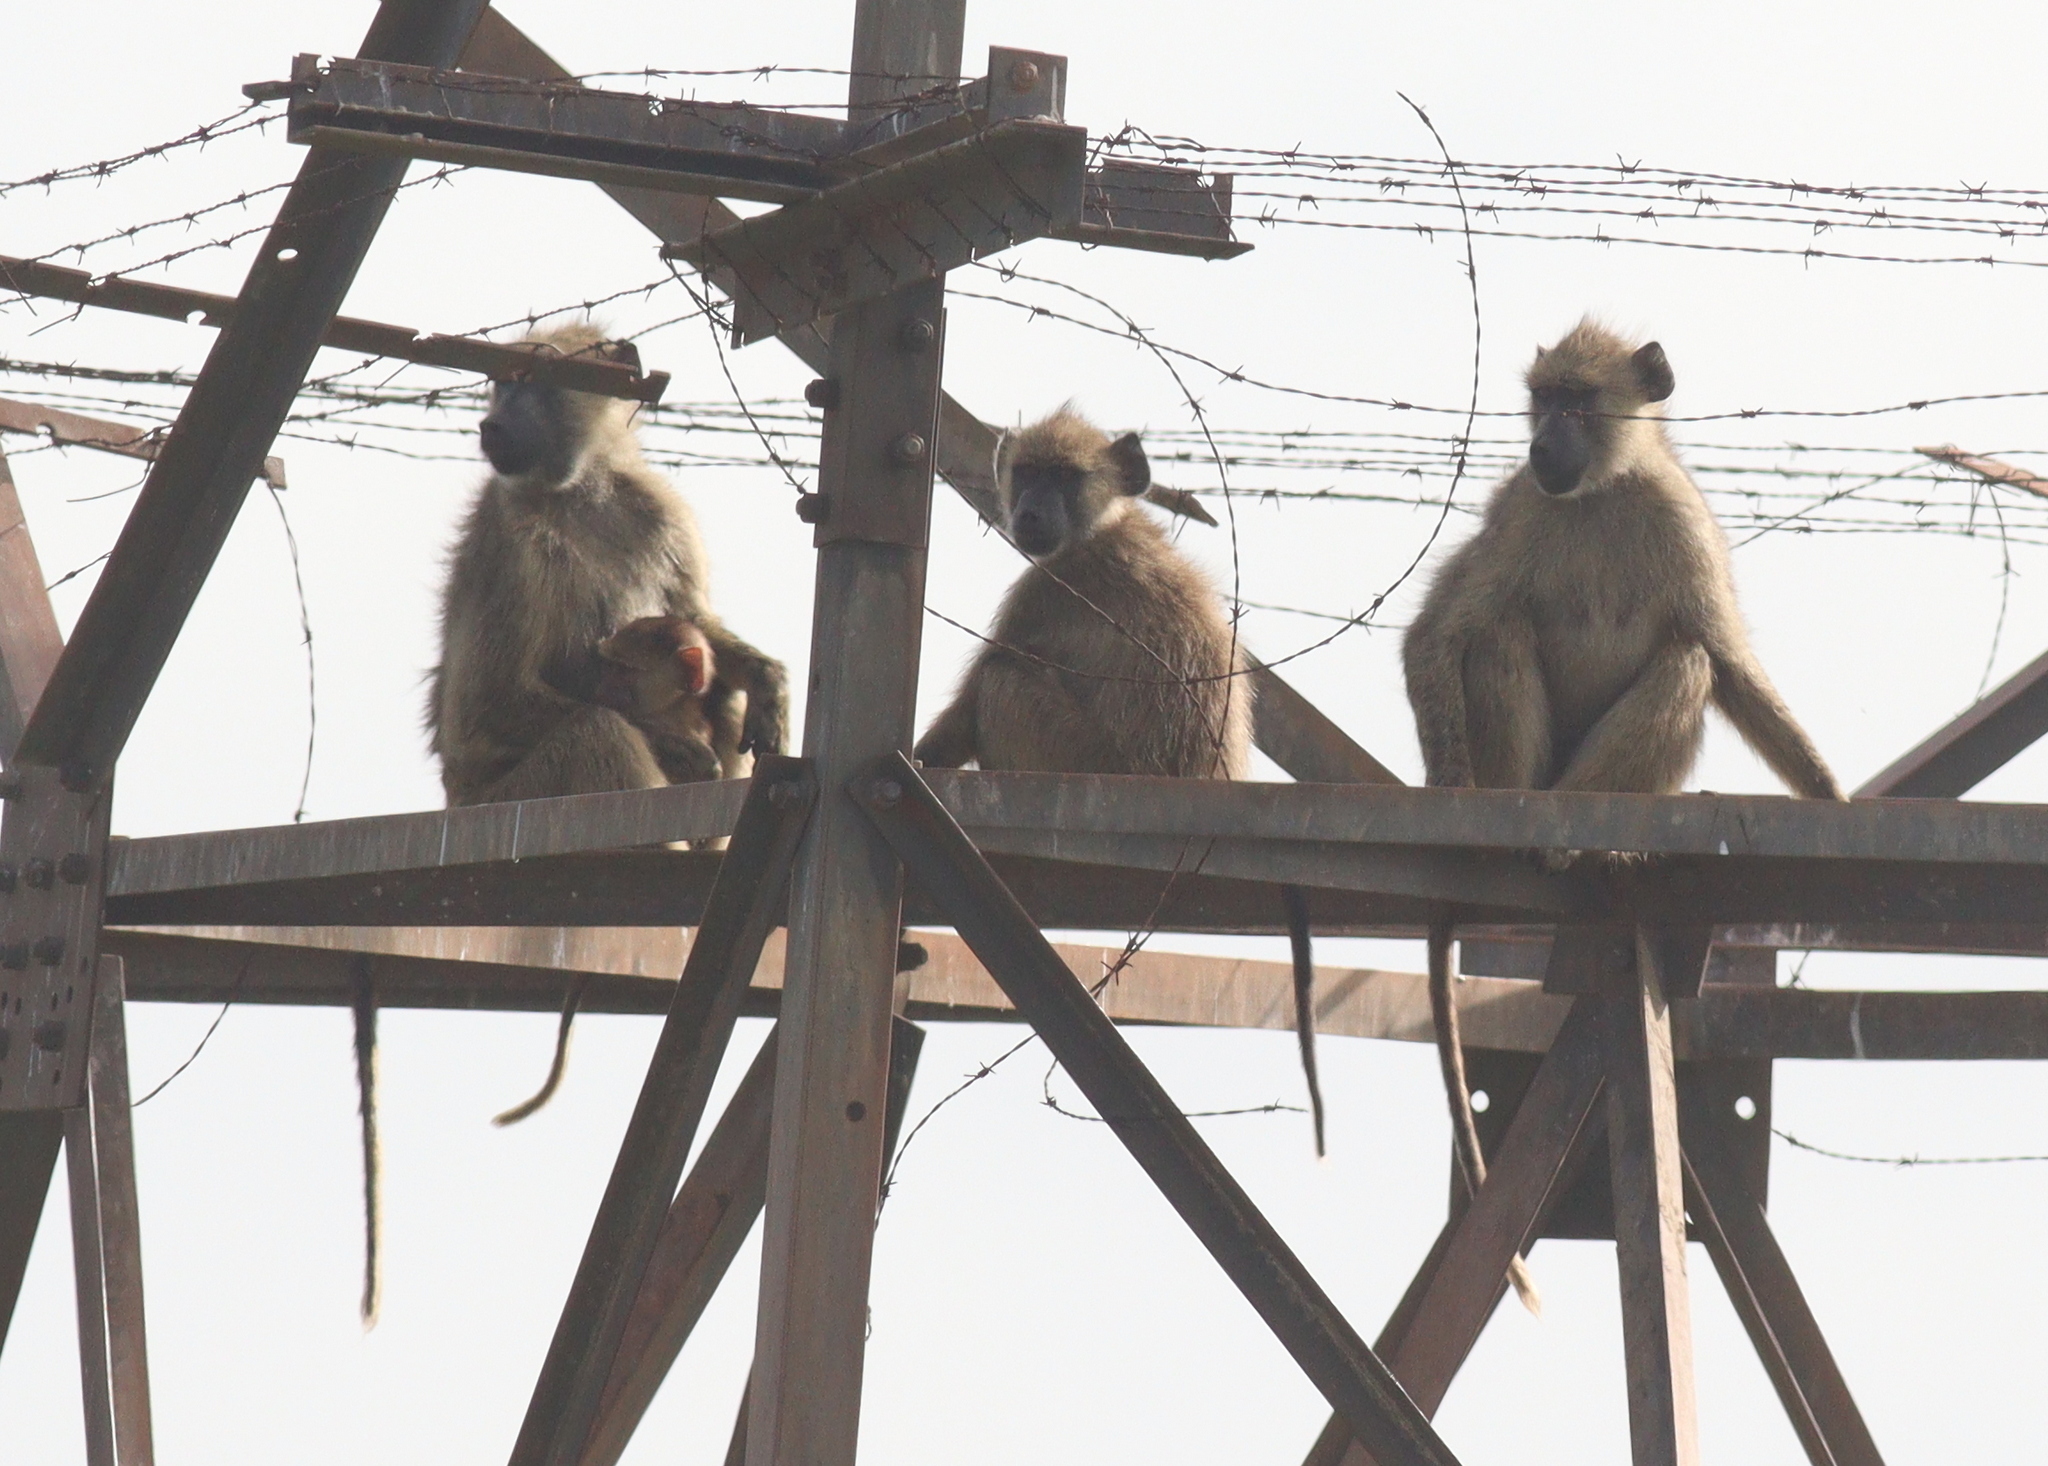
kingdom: Animalia
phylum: Chordata
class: Mammalia
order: Primates
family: Cercopithecidae
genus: Papio
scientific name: Papio cynocephalus
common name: Yellow baboon
